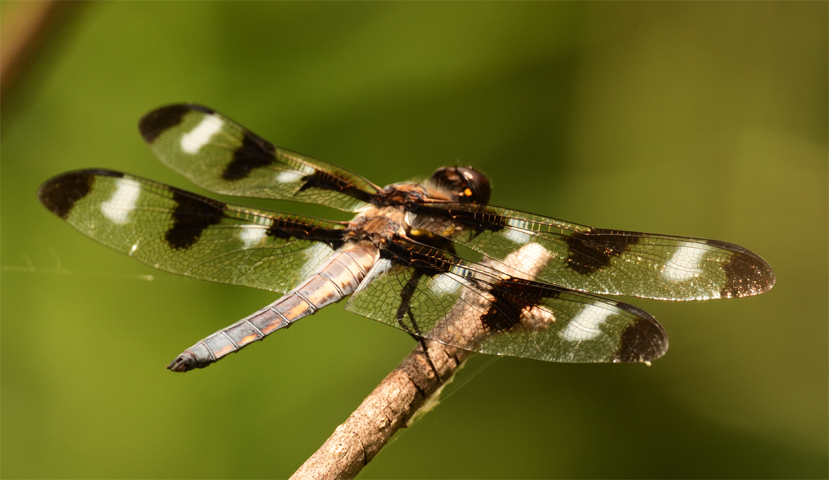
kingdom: Animalia
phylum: Arthropoda
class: Insecta
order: Odonata
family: Libellulidae
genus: Libellula
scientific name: Libellula pulchella
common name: Twelve-spotted skimmer
